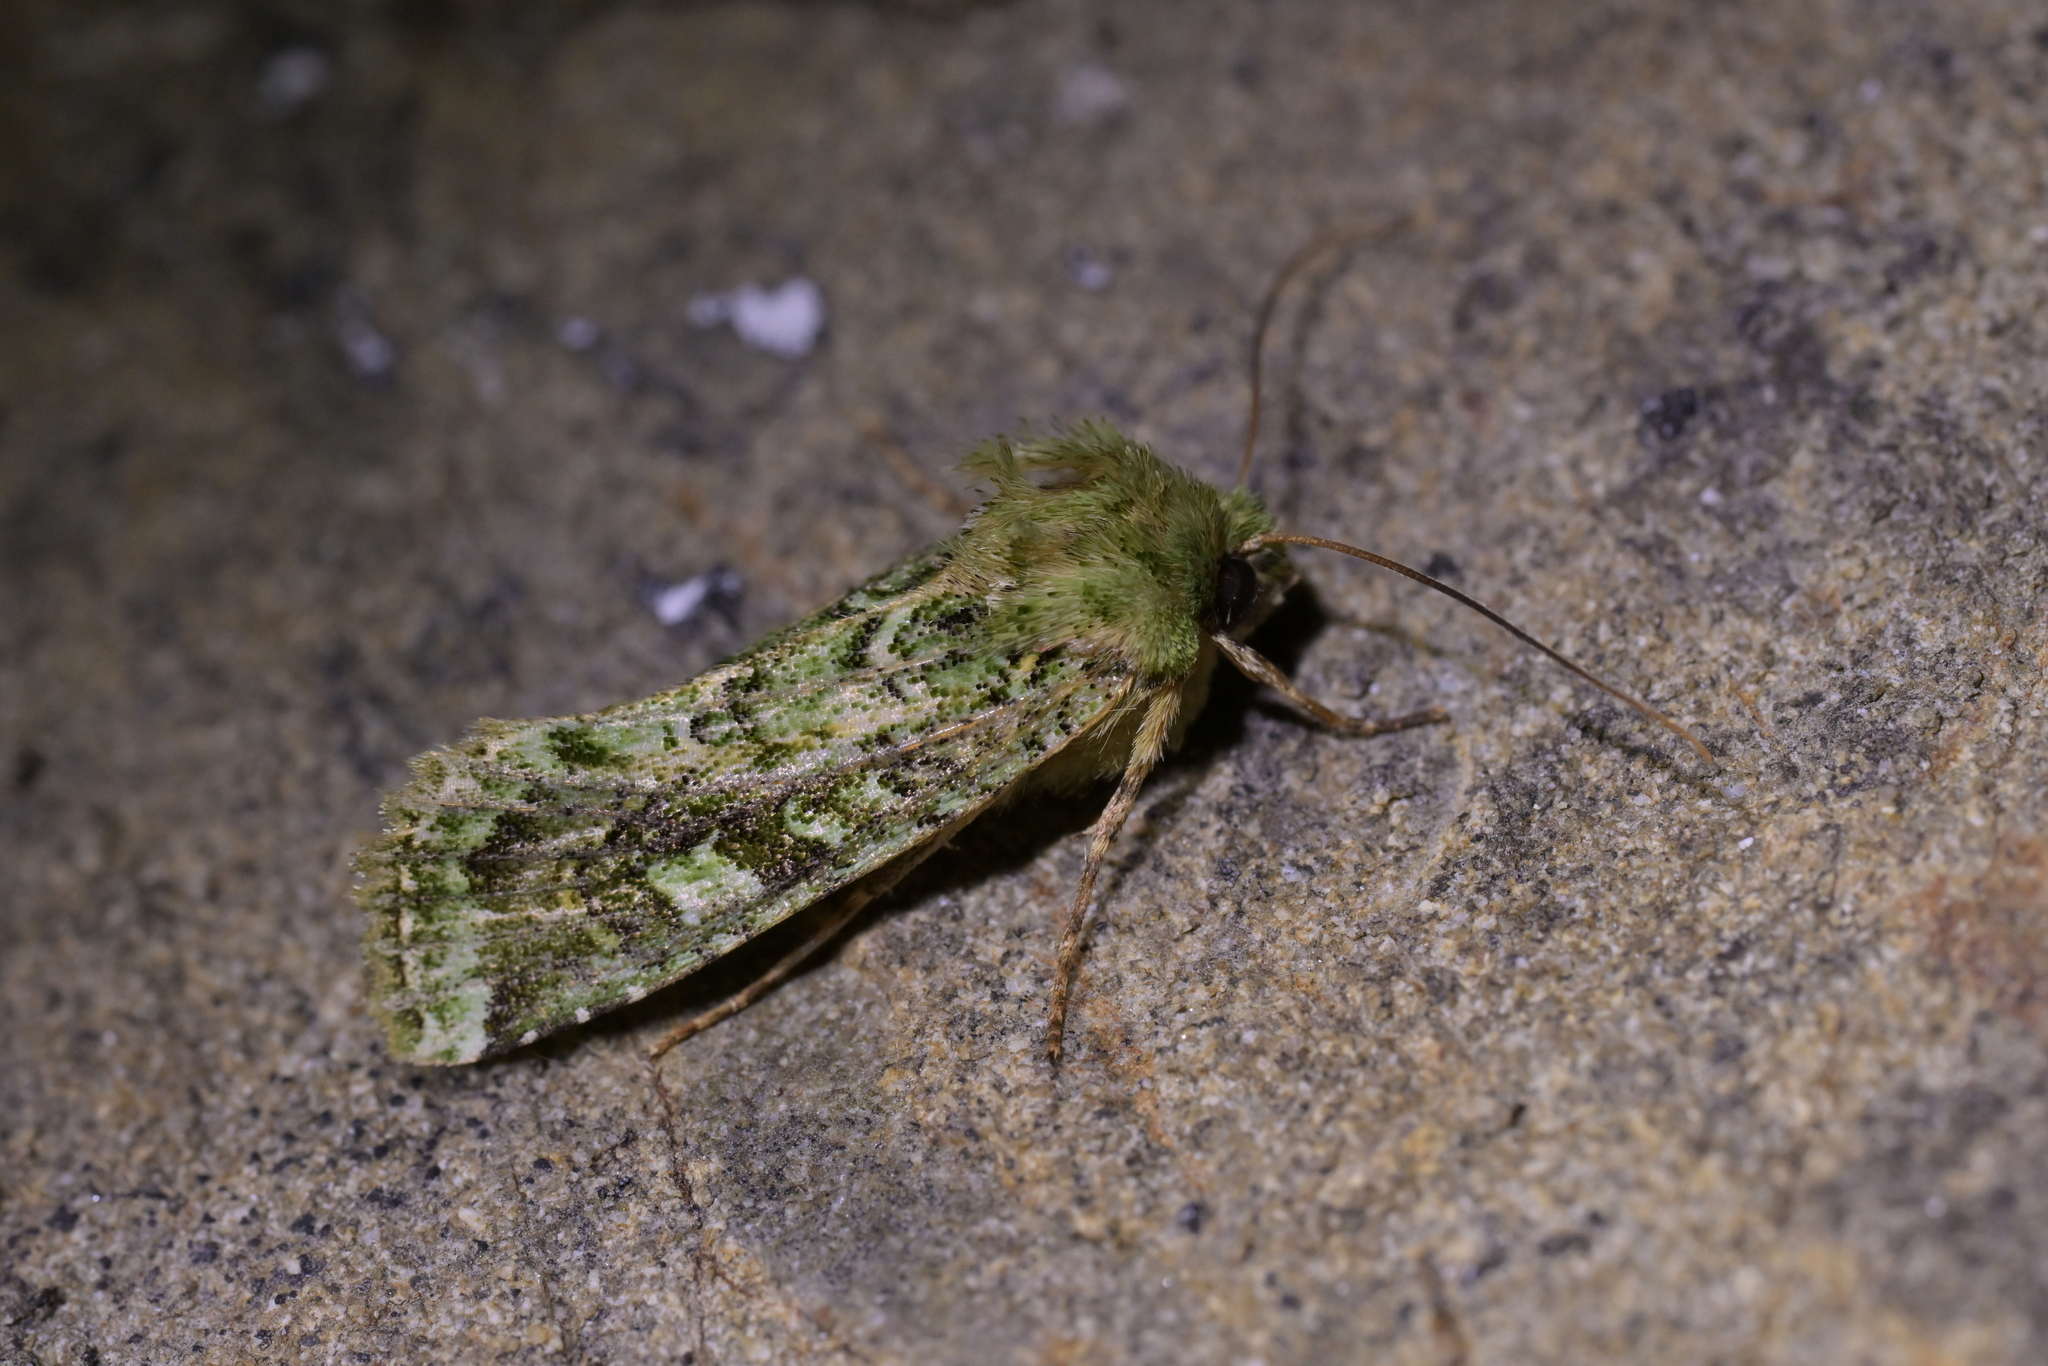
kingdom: Animalia
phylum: Arthropoda
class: Insecta
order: Lepidoptera
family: Noctuidae
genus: Feredayia
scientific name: Feredayia grammosa
